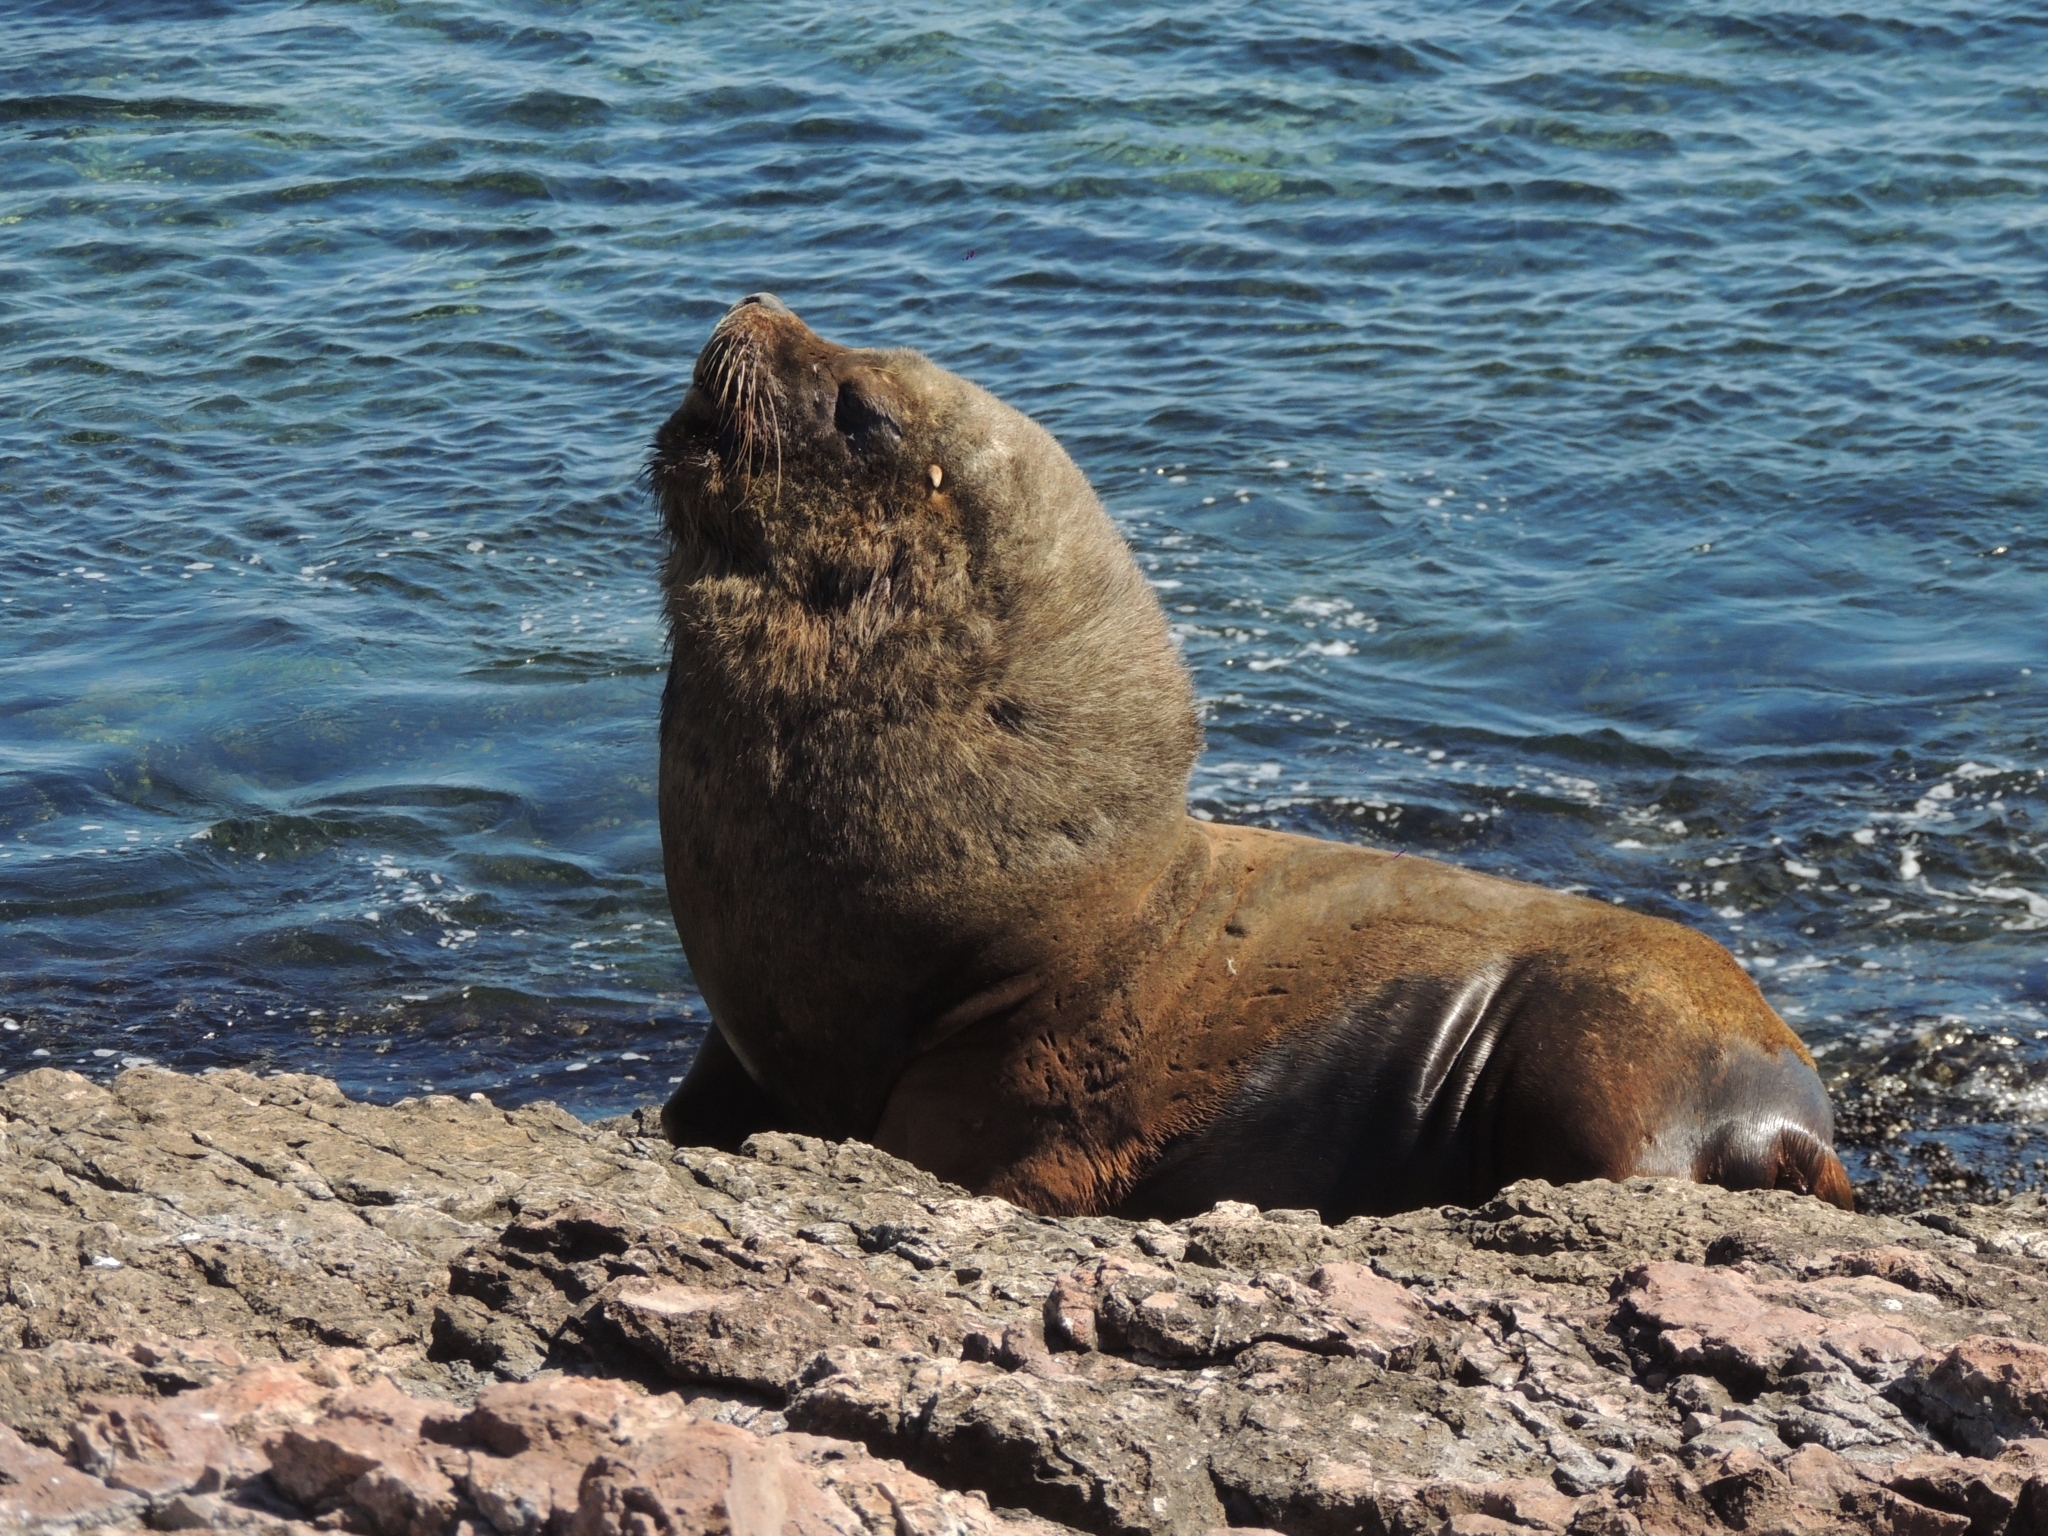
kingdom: Animalia
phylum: Chordata
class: Mammalia
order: Carnivora
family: Otariidae
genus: Otaria
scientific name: Otaria byronia
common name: South american sea lion
